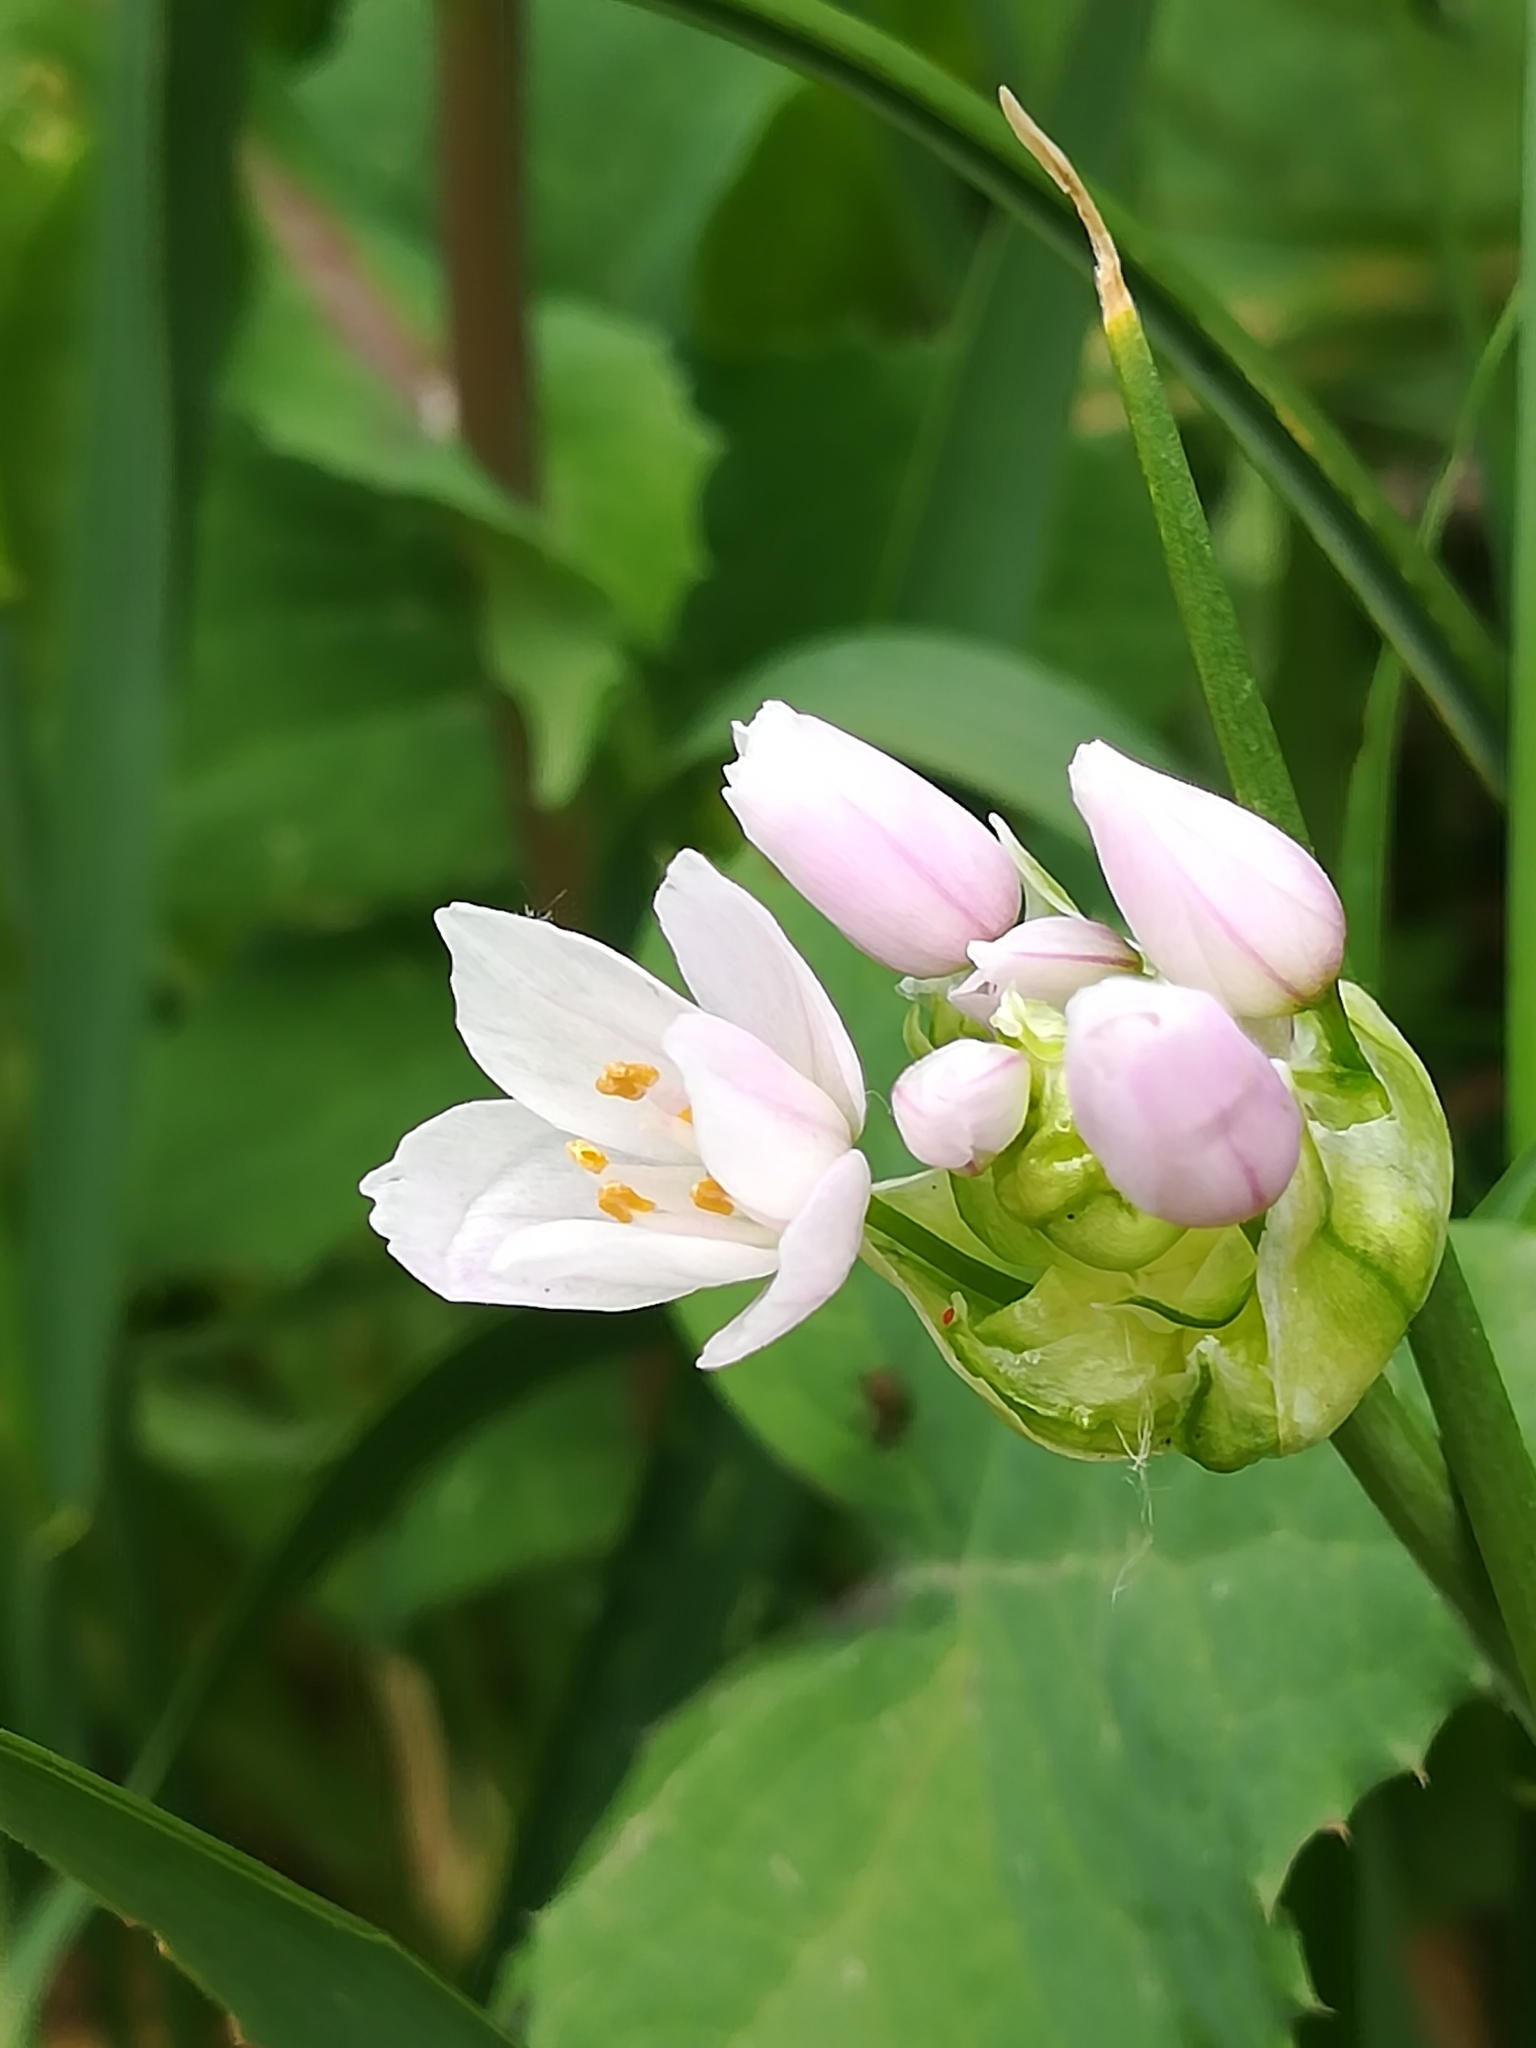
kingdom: Plantae
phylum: Tracheophyta
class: Liliopsida
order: Asparagales
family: Amaryllidaceae
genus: Allium
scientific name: Allium roseum
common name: Rosy garlic
